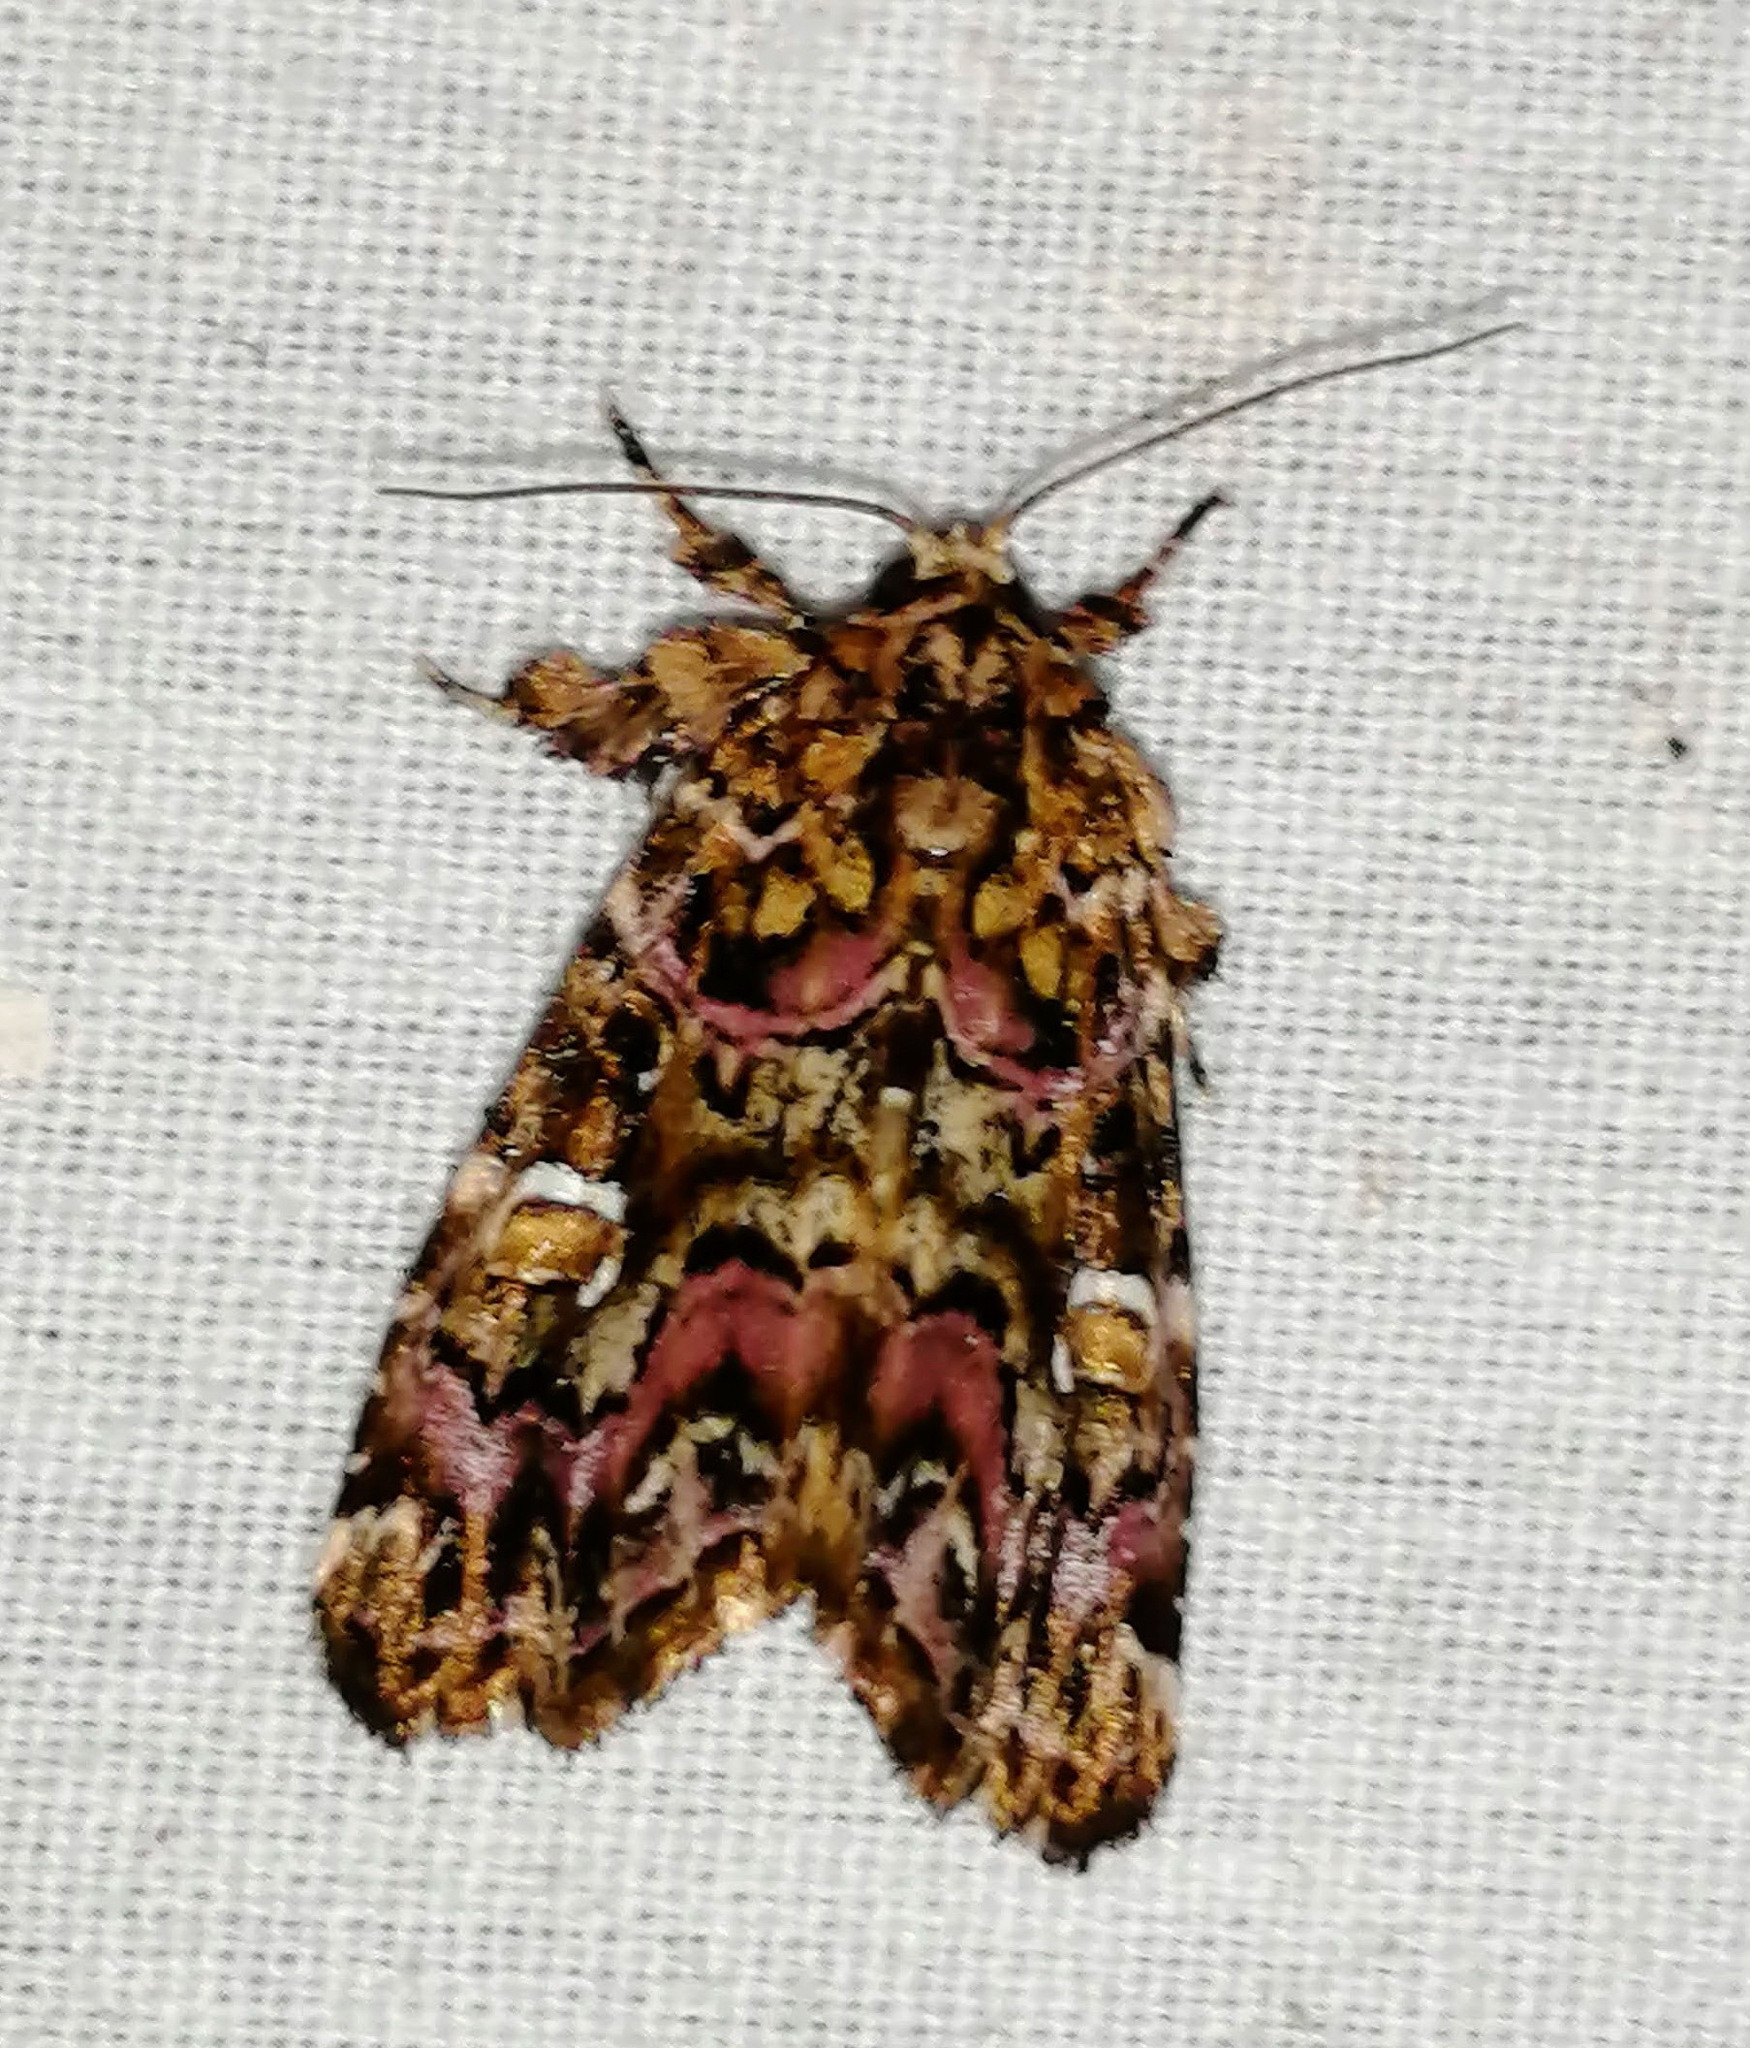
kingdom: Animalia
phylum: Arthropoda
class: Insecta
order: Lepidoptera
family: Noctuidae
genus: Callopistria
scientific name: Callopistria mollissima
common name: Pink-shaded fern moth
